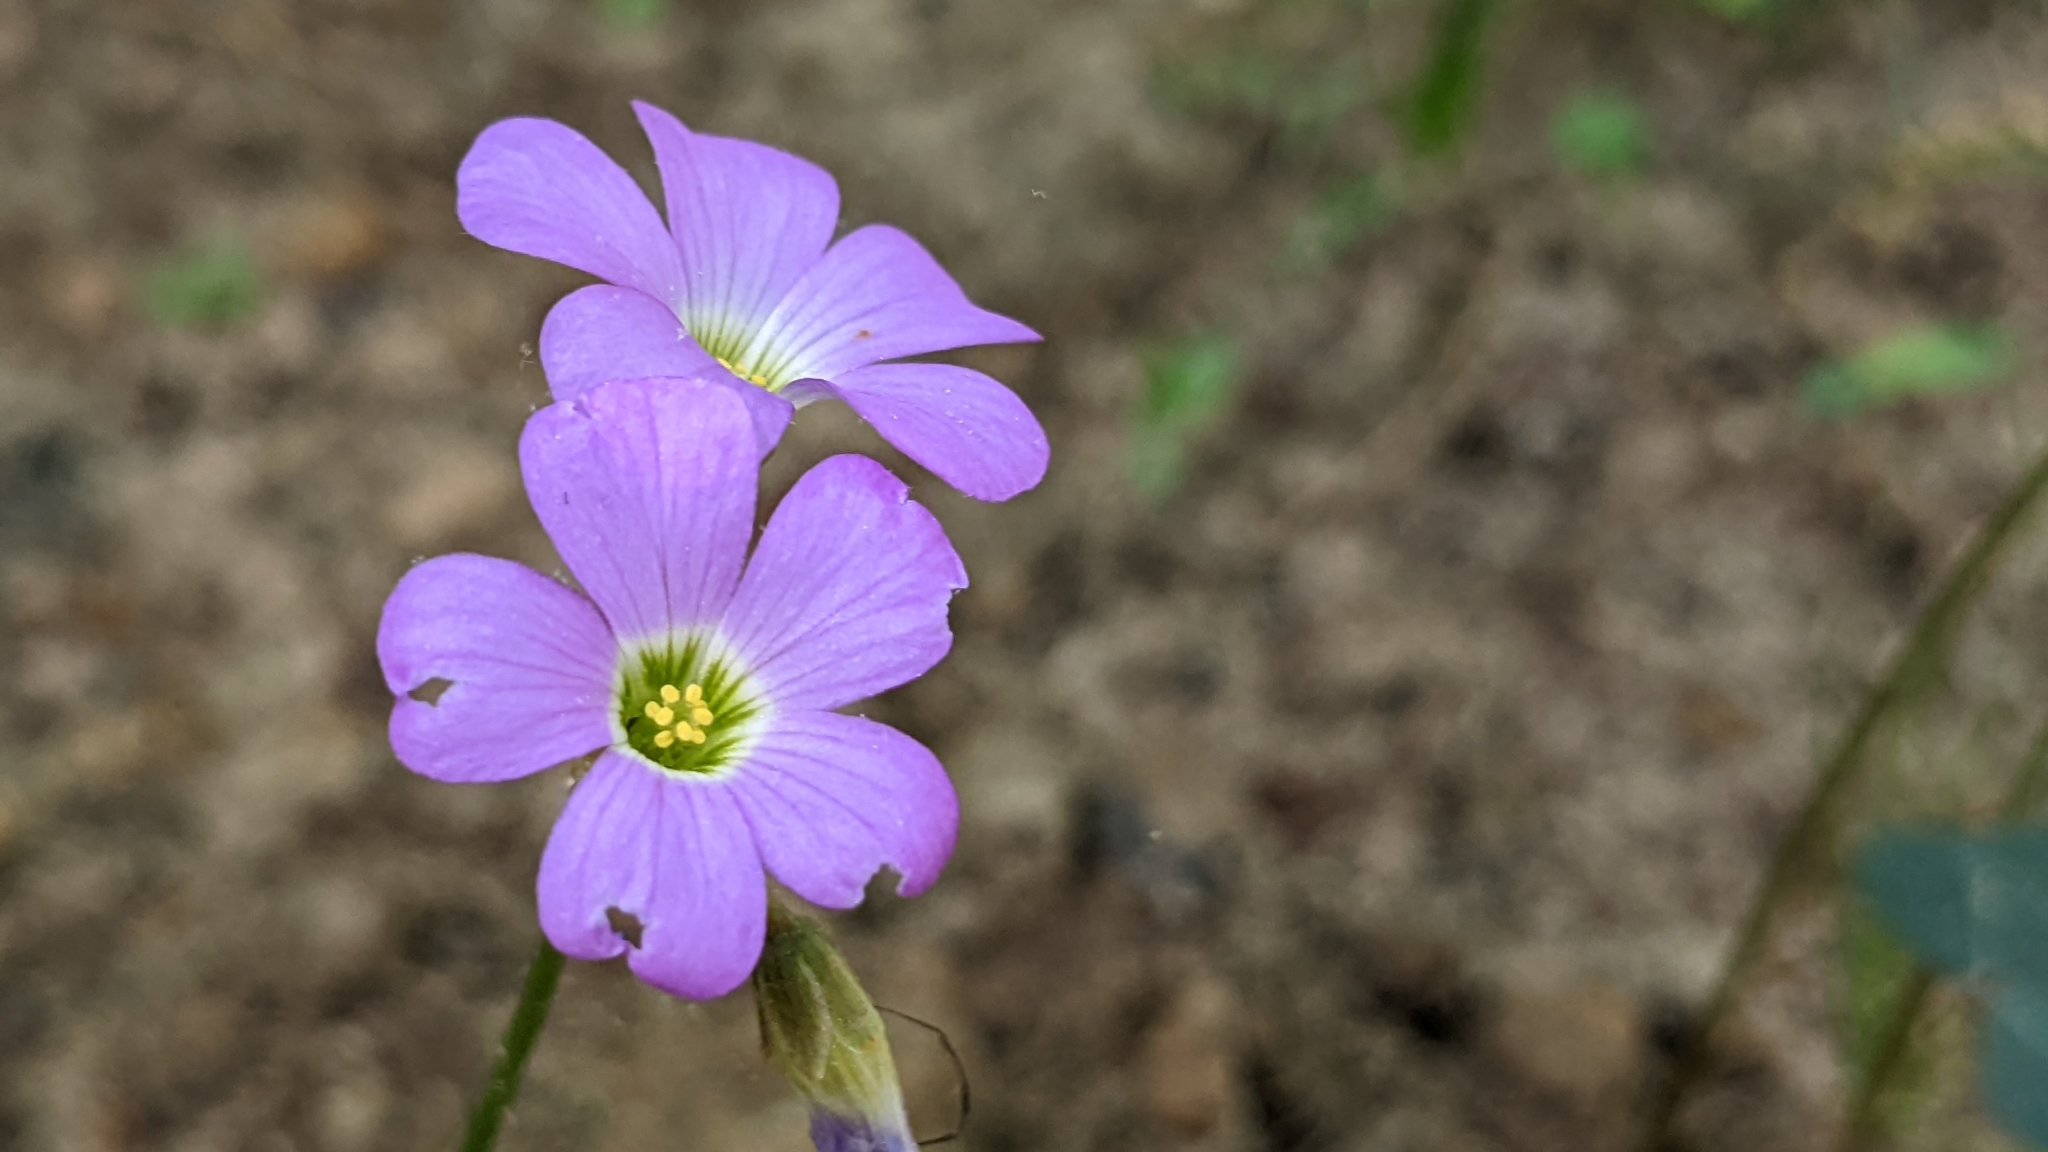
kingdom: Plantae
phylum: Tracheophyta
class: Magnoliopsida
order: Oxalidales
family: Oxalidaceae
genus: Oxalis
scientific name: Oxalis violacea
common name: Violet wood-sorrel
